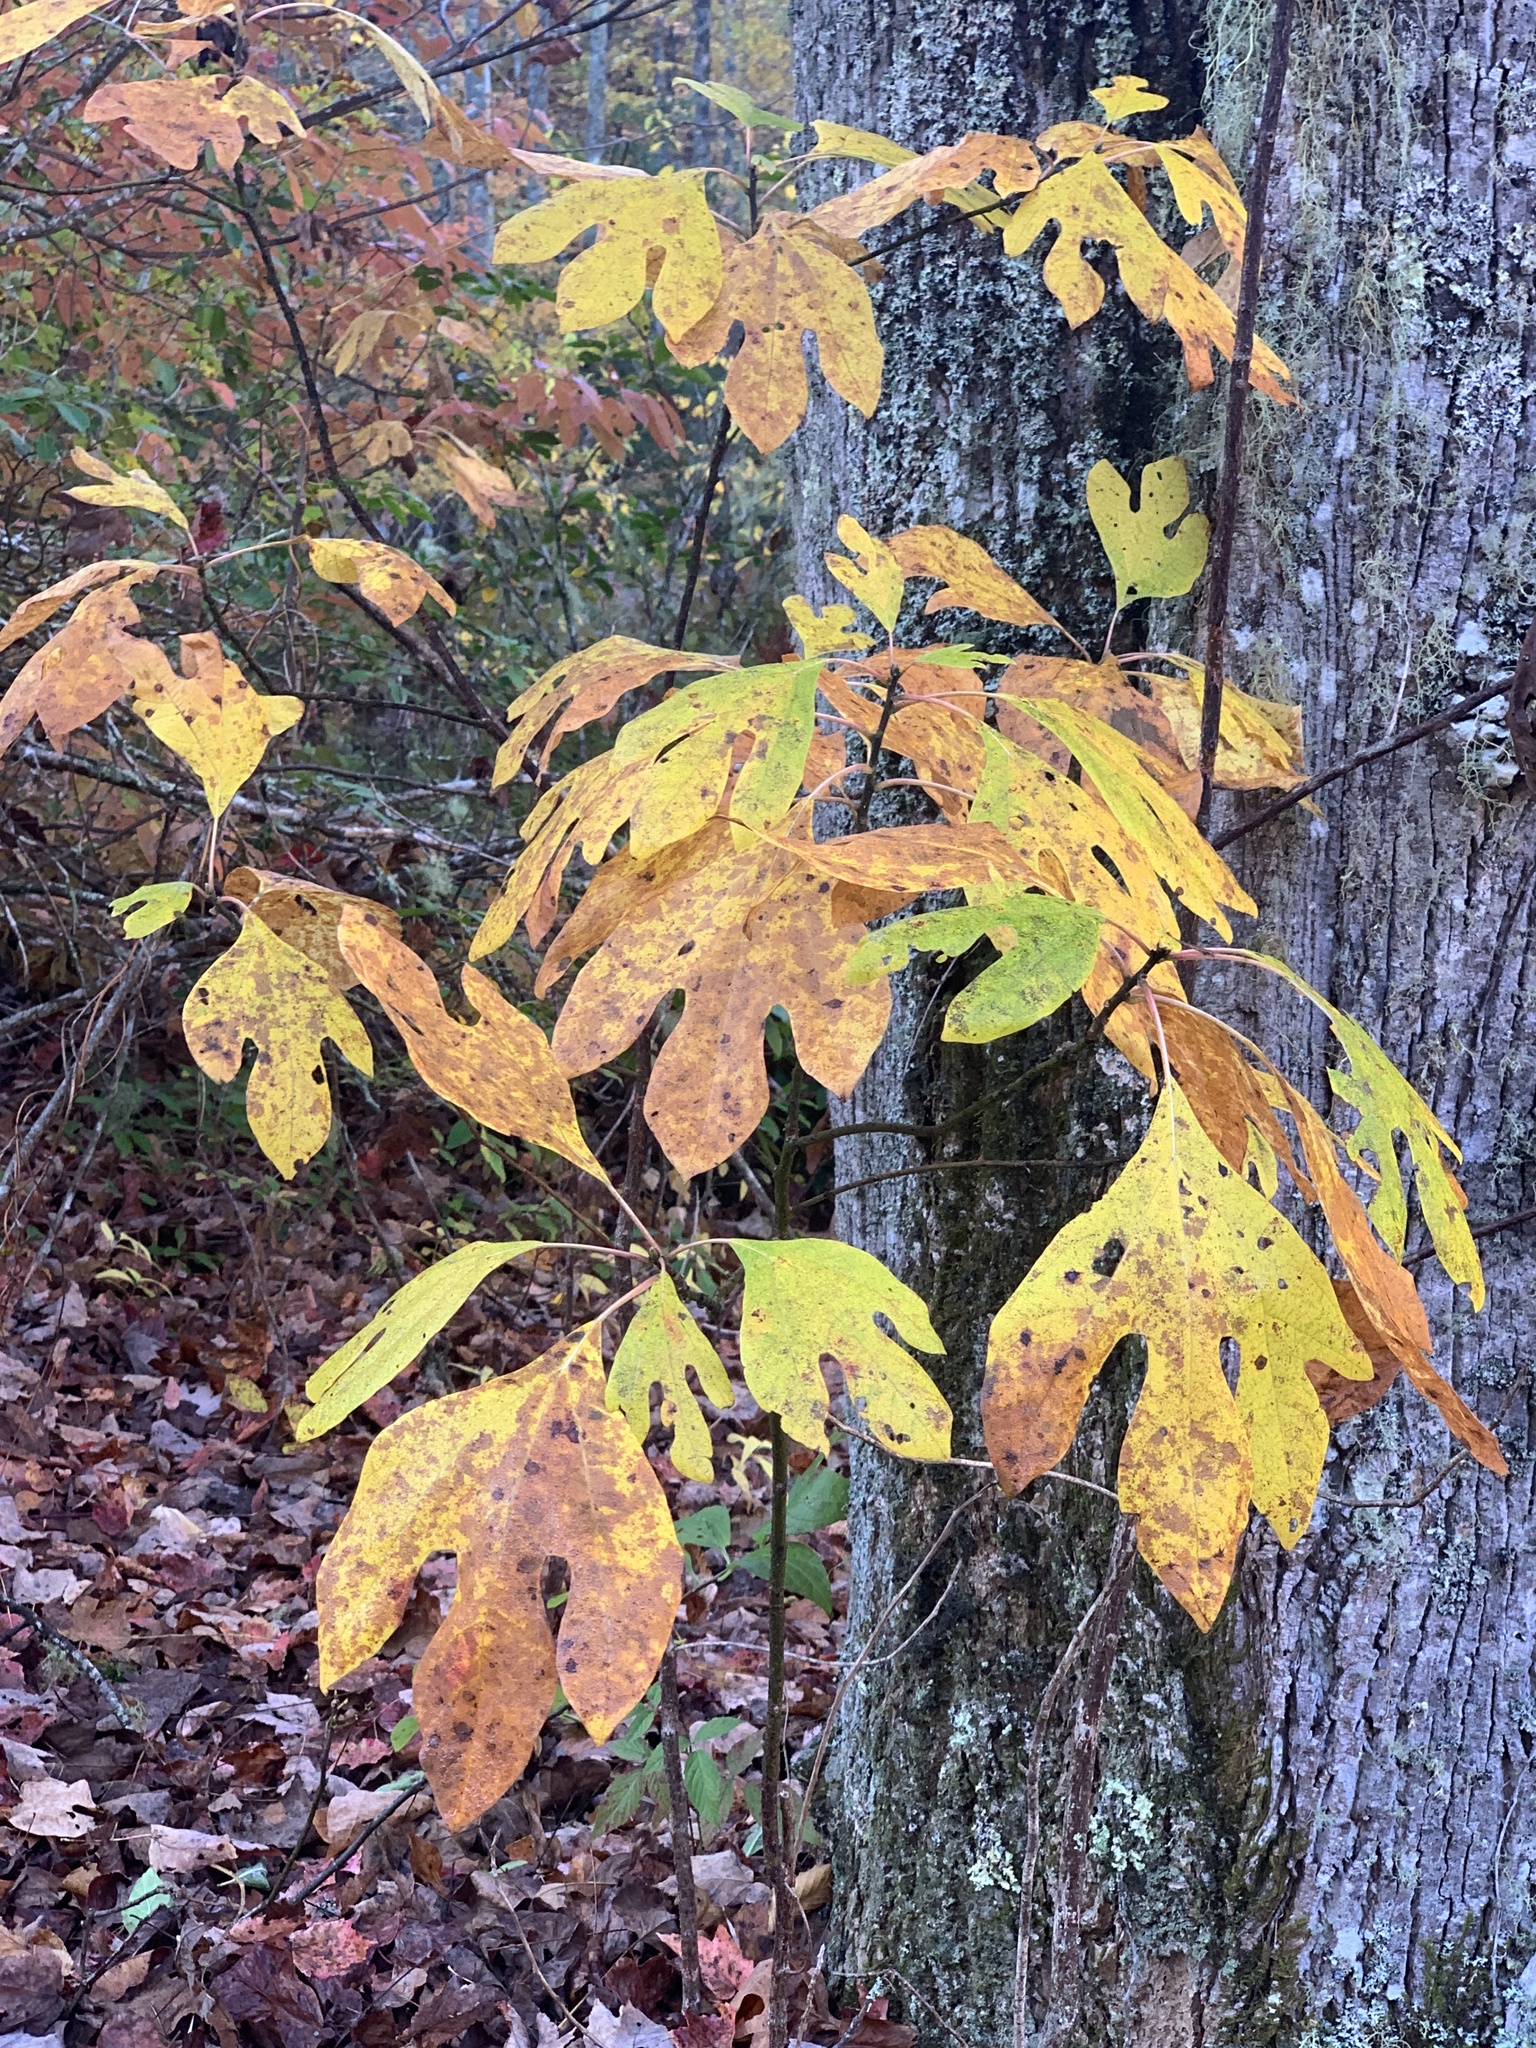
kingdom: Plantae
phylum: Tracheophyta
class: Magnoliopsida
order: Laurales
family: Lauraceae
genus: Sassafras
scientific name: Sassafras albidum
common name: Sassafras
